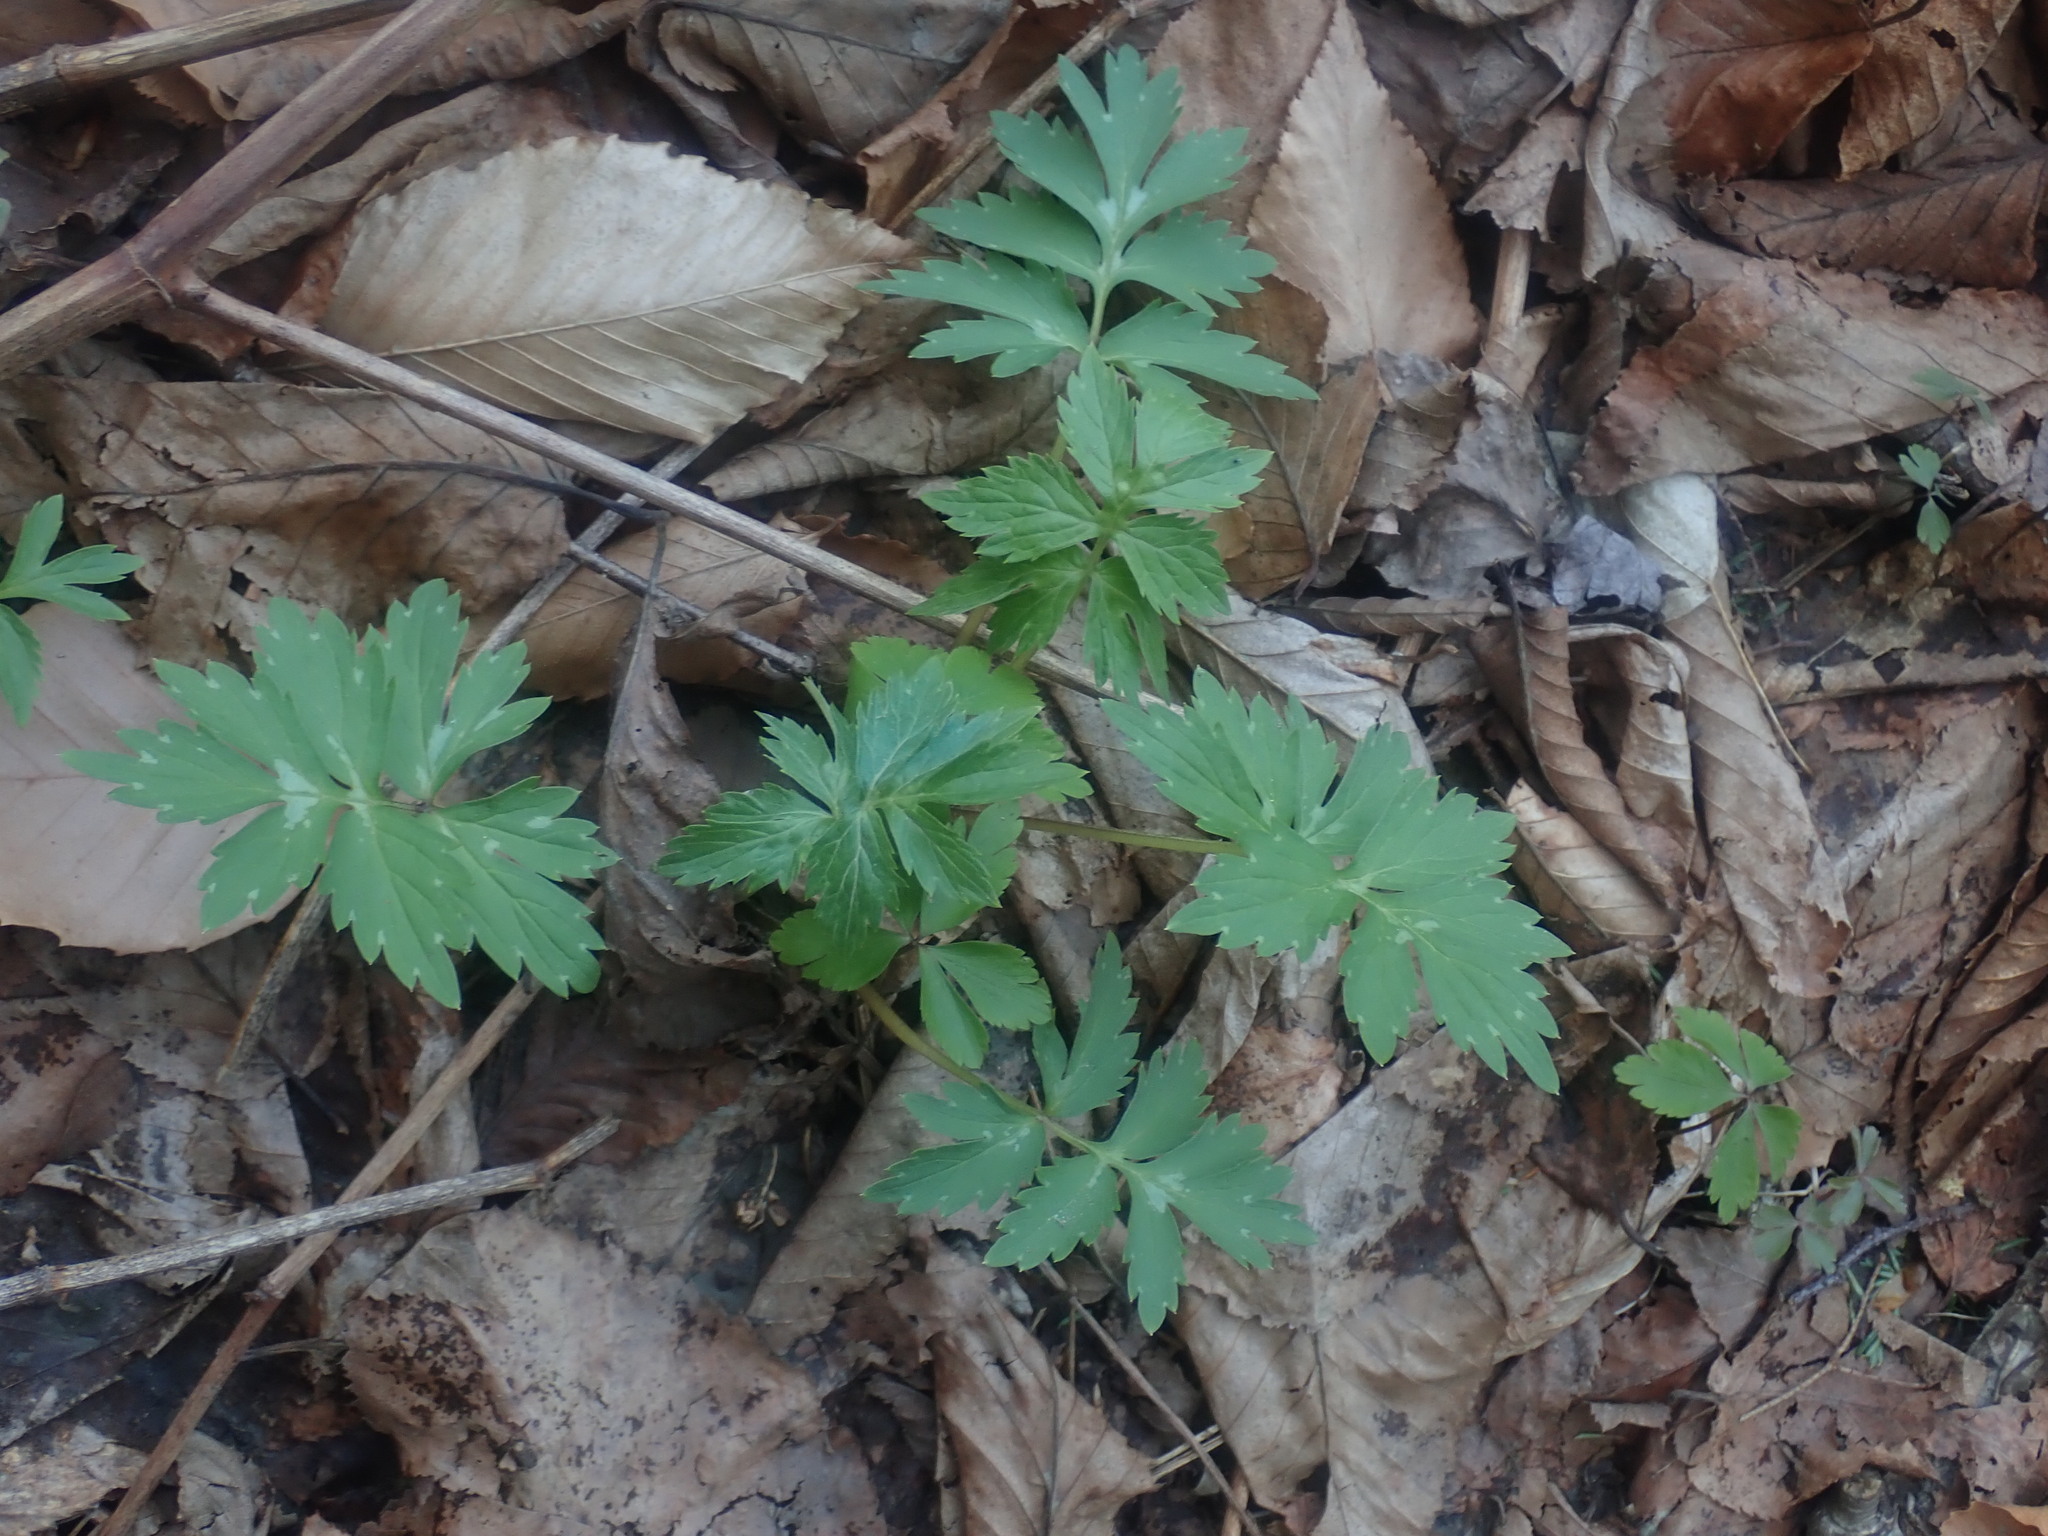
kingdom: Plantae
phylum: Tracheophyta
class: Magnoliopsida
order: Boraginales
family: Hydrophyllaceae
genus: Hydrophyllum
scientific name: Hydrophyllum virginianum
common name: Virginia waterleaf
